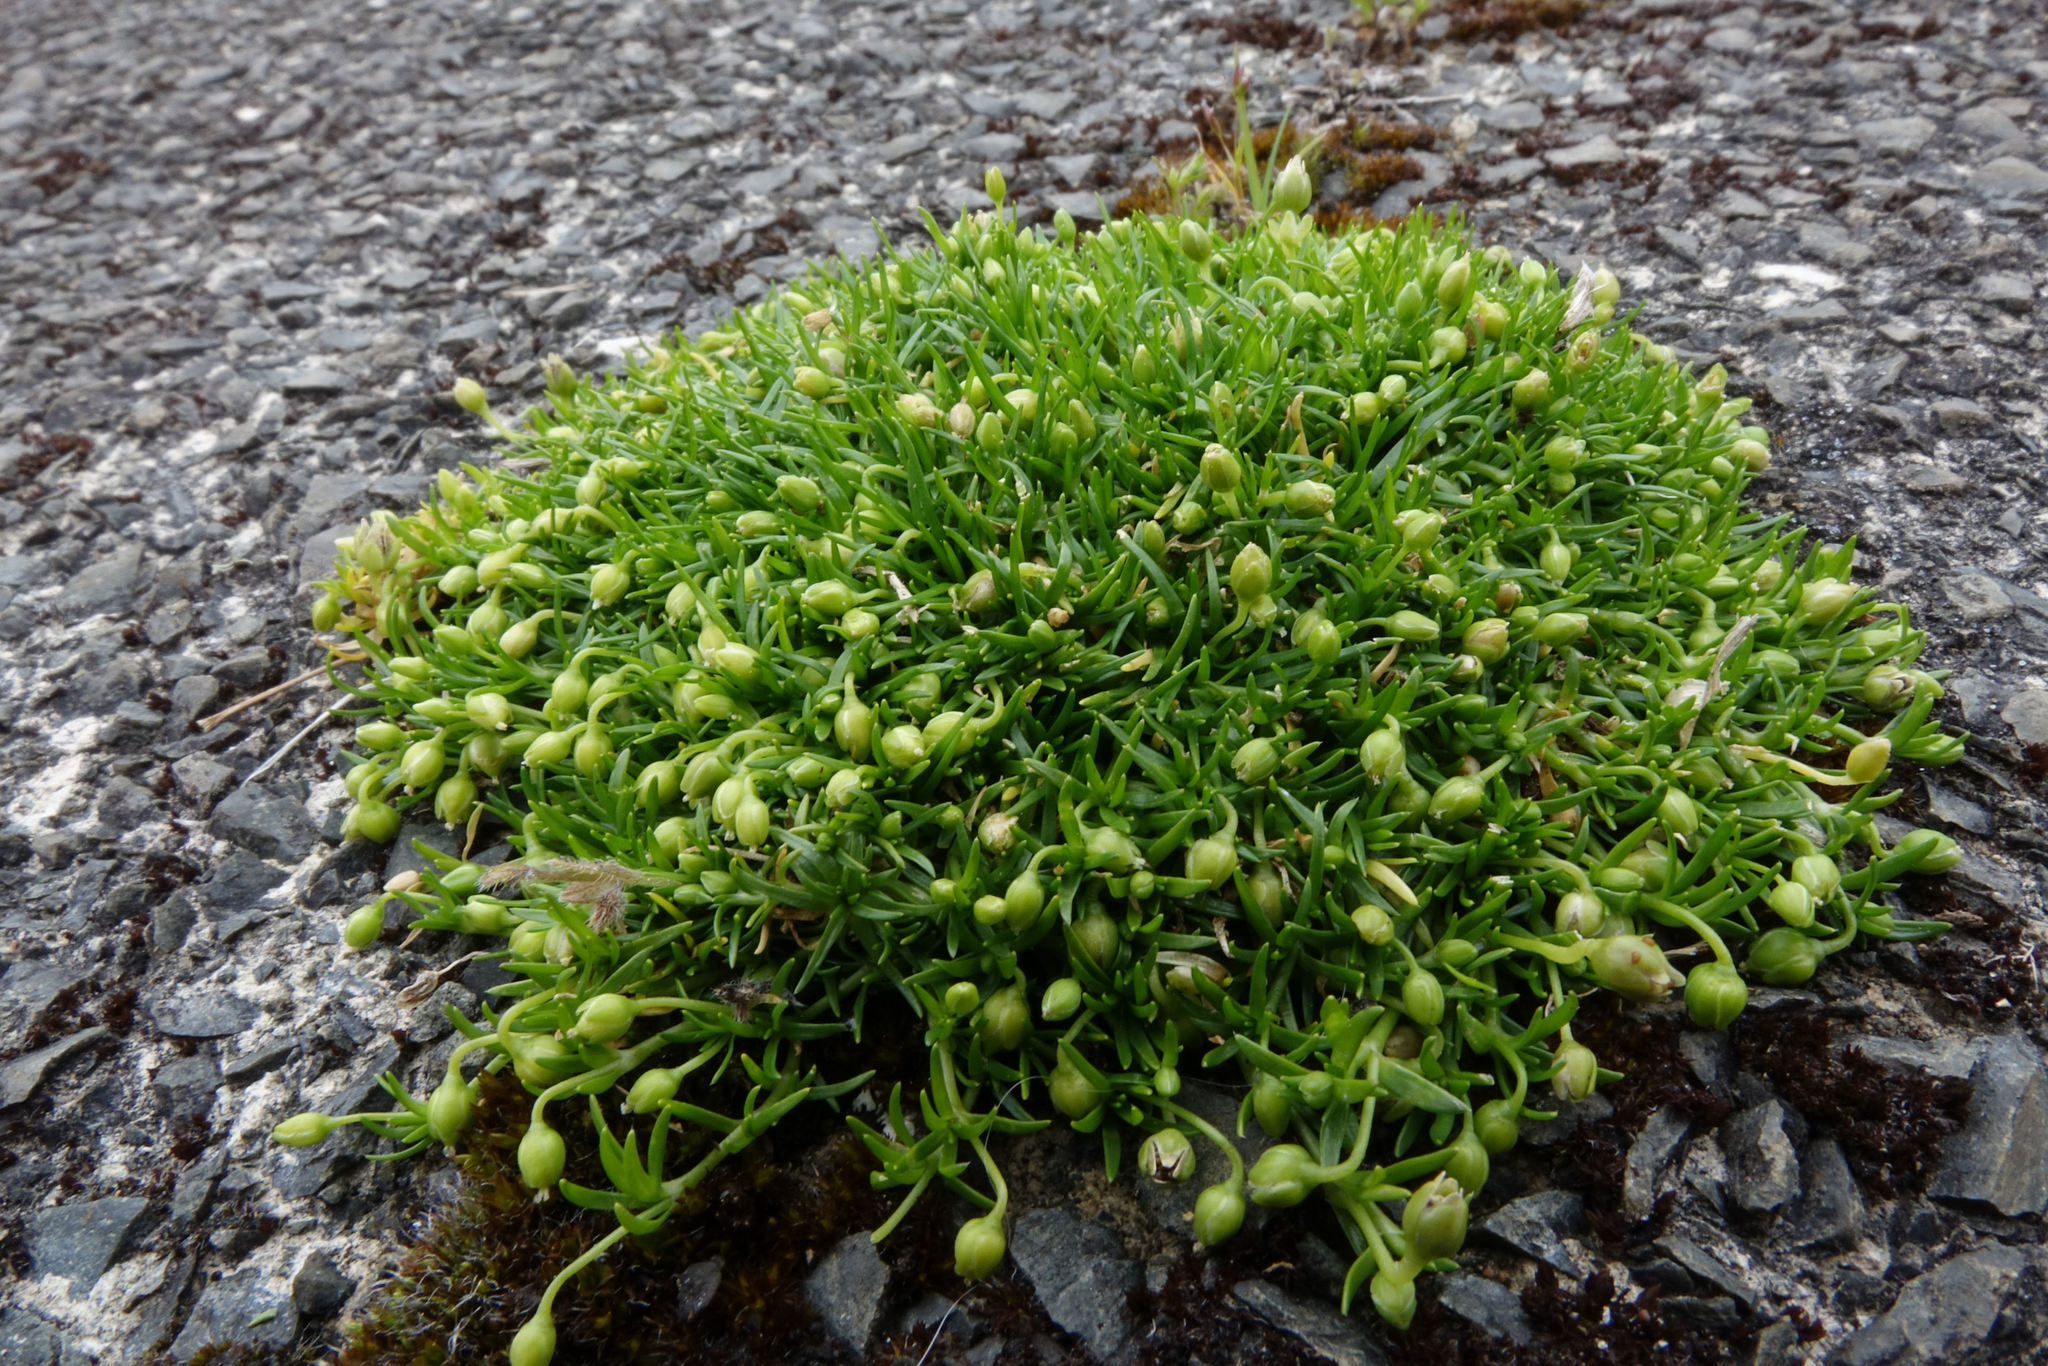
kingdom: Plantae
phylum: Tracheophyta
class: Magnoliopsida
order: Caryophyllales
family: Caryophyllaceae
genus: Sagina
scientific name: Sagina procumbens
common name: Procumbent pearlwort
